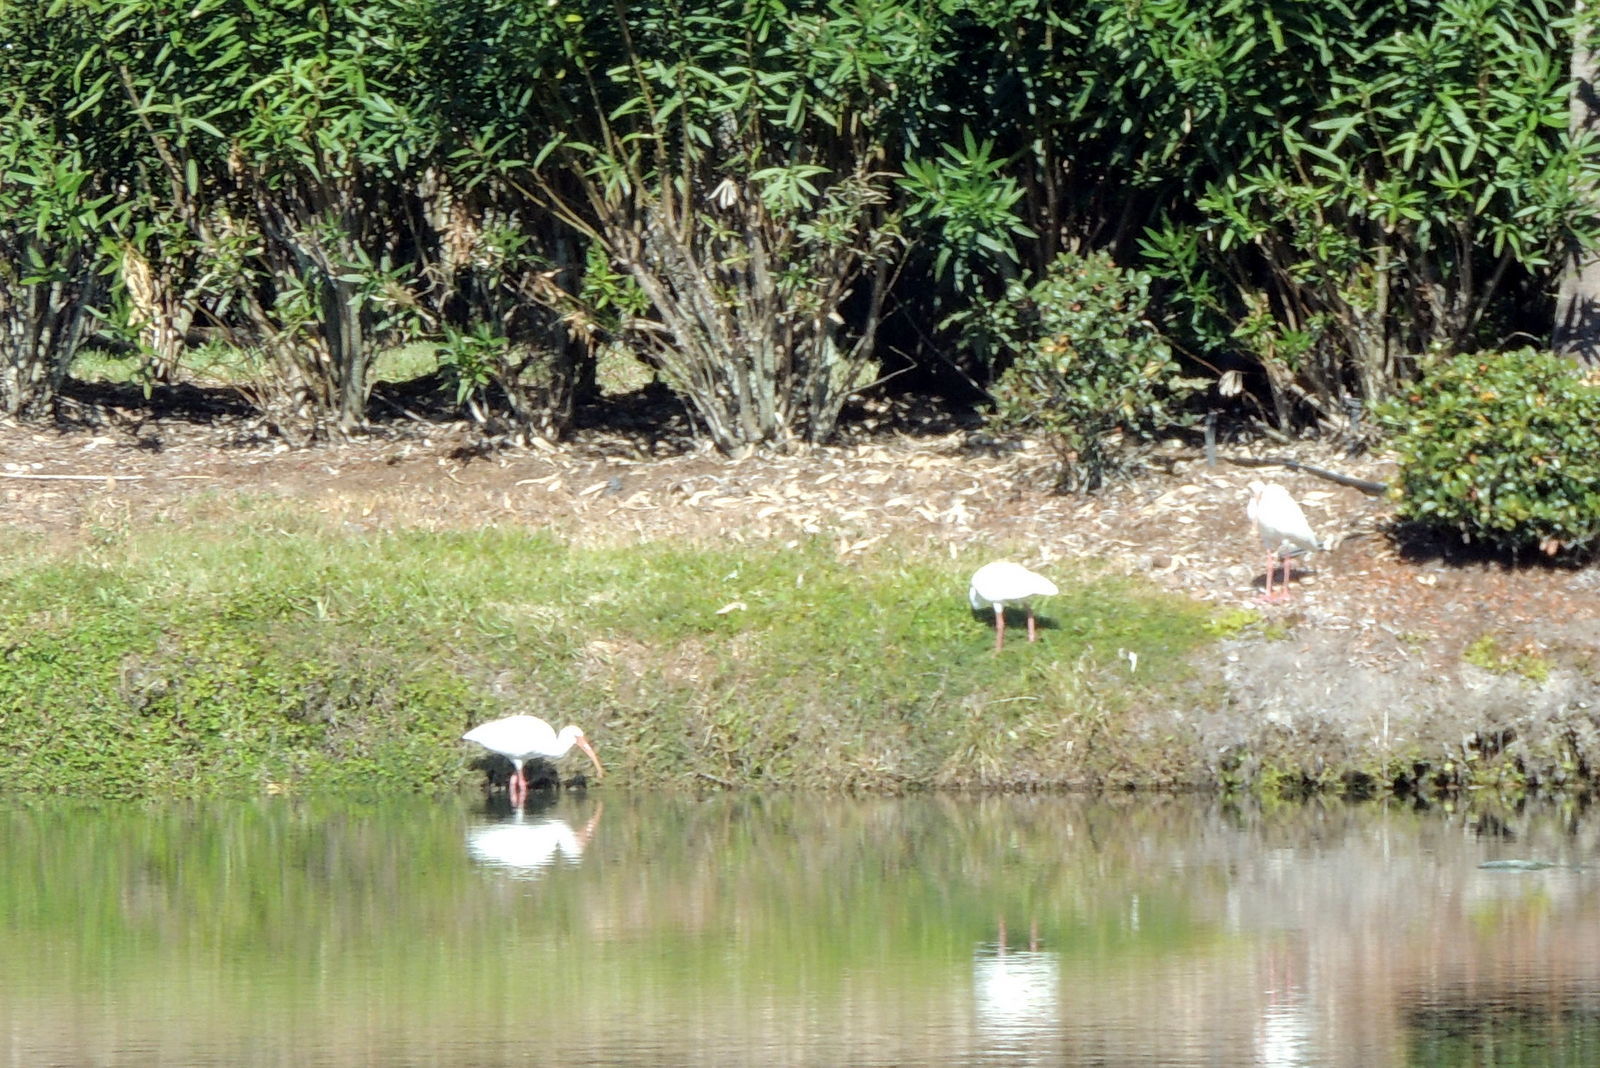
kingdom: Animalia
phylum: Chordata
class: Aves
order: Pelecaniformes
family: Threskiornithidae
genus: Eudocimus
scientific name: Eudocimus albus
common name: White ibis
